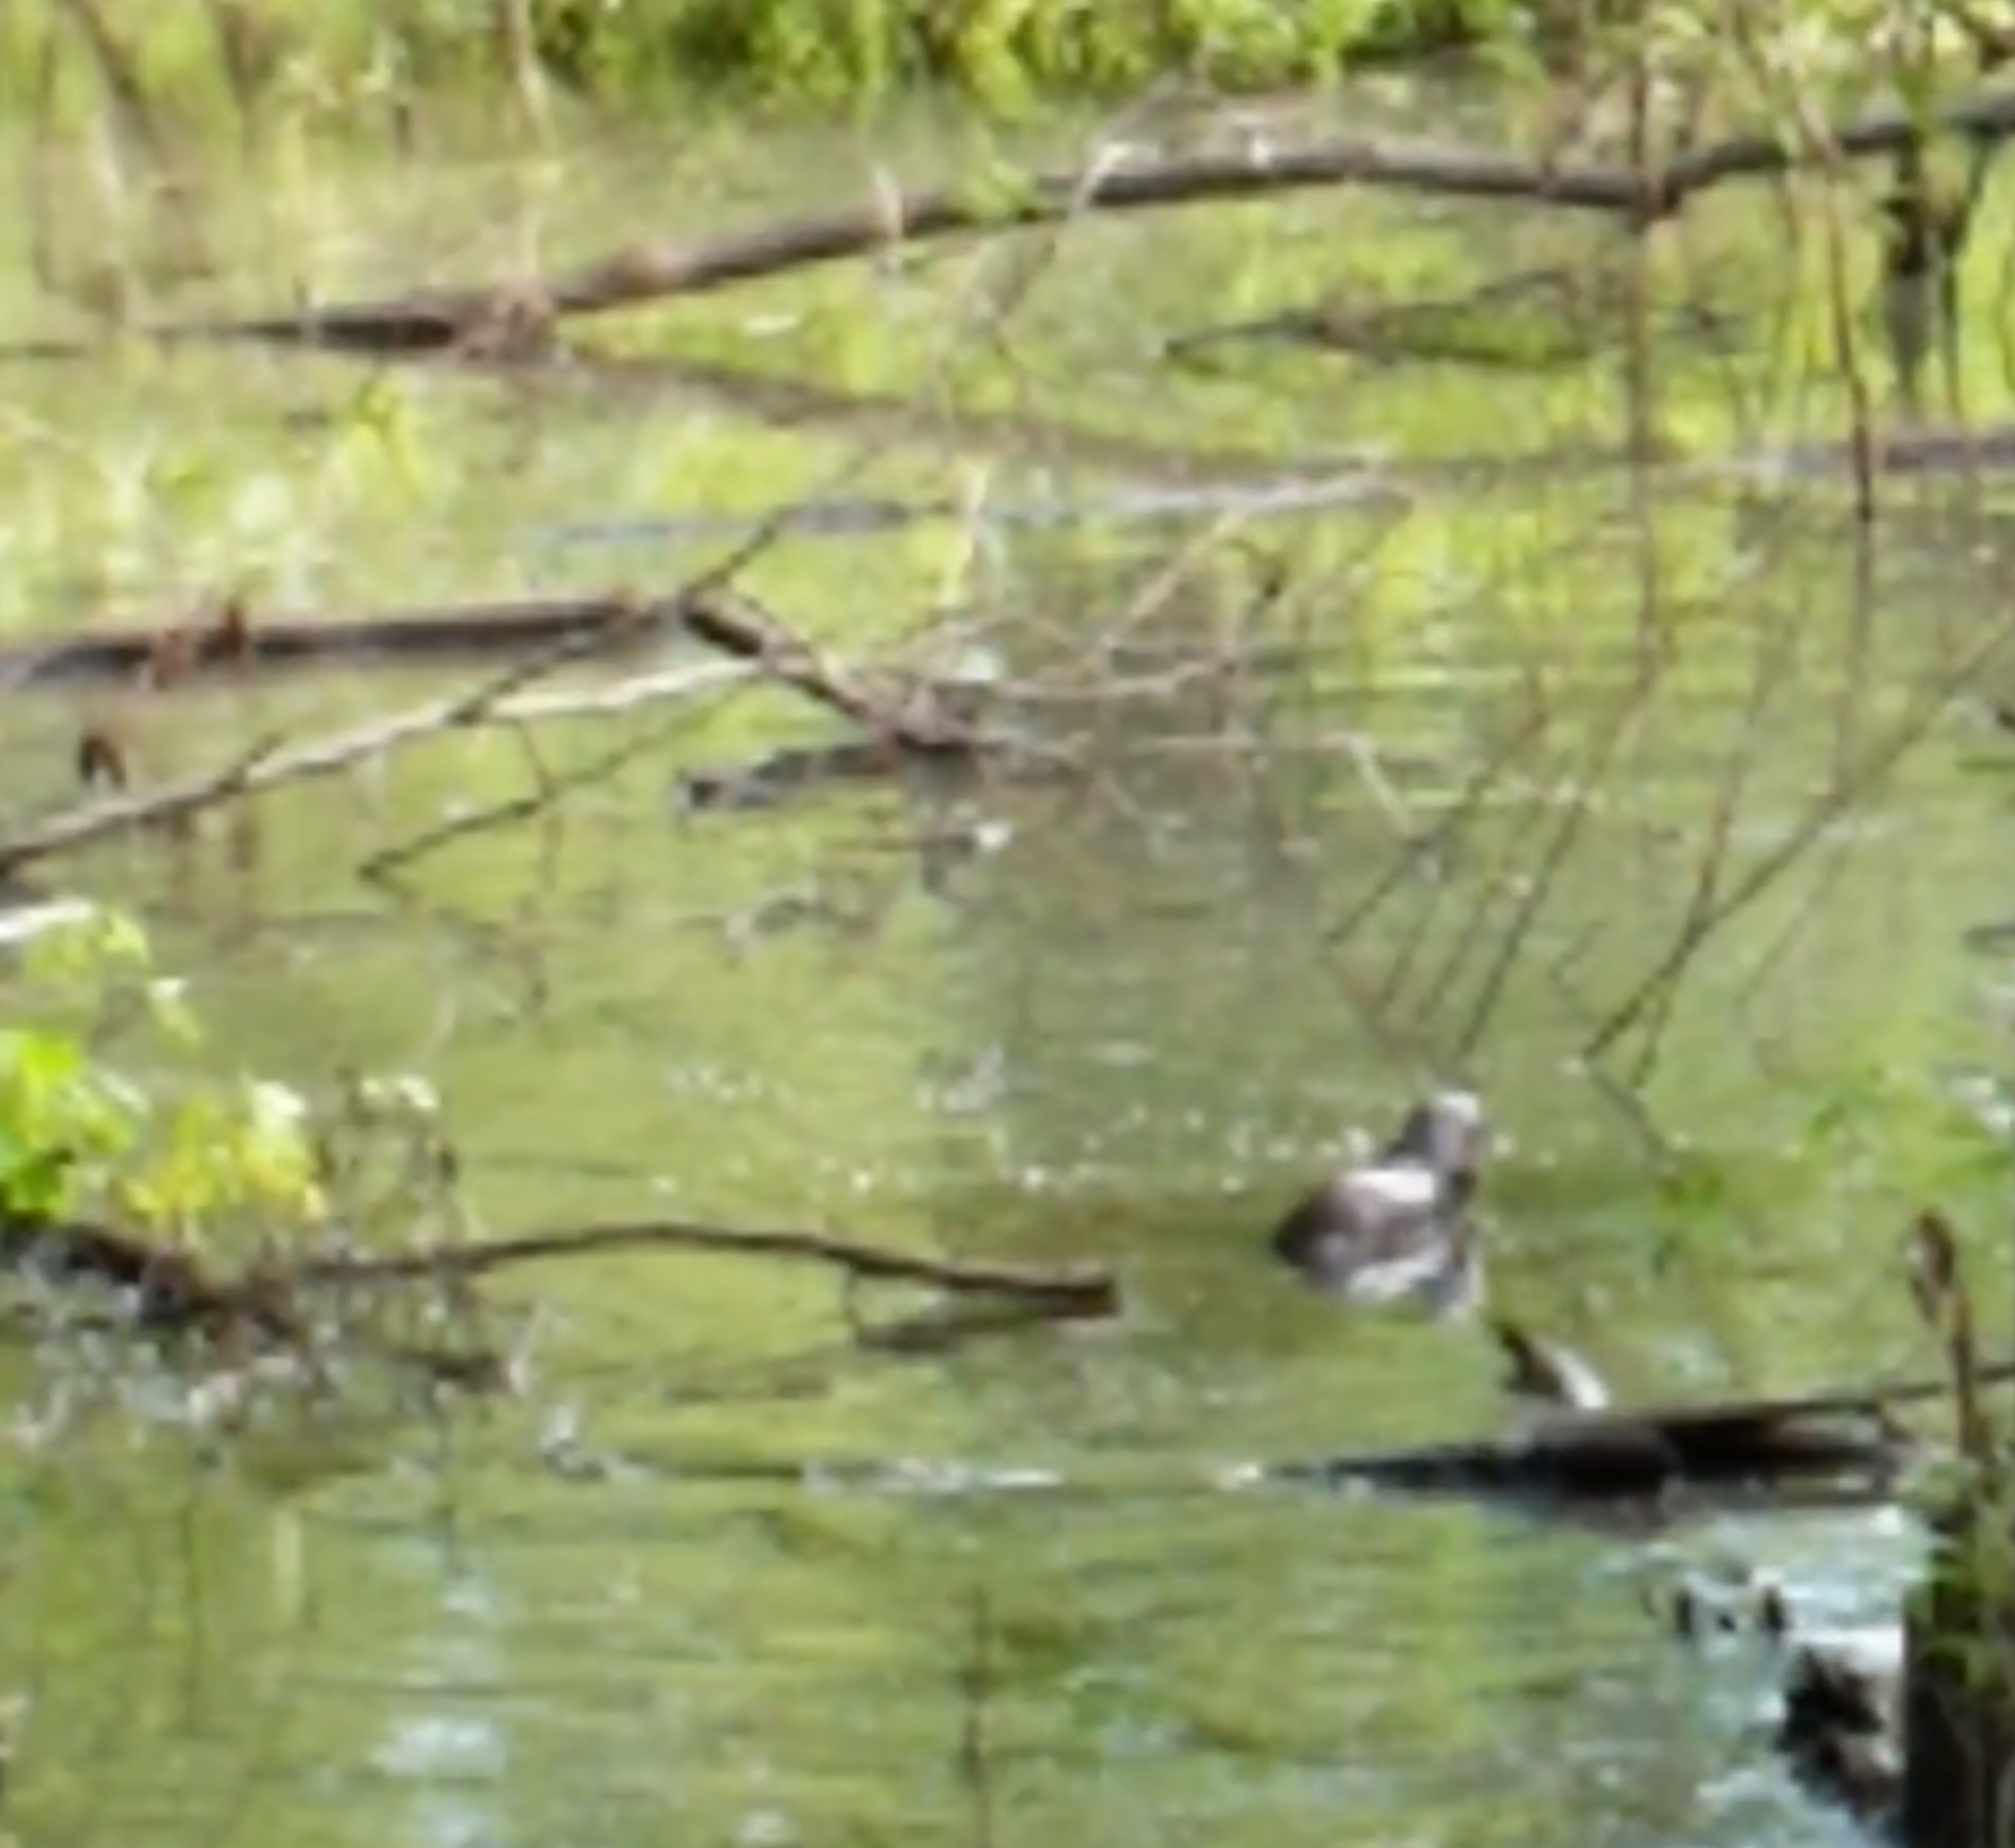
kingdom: Animalia
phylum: Chordata
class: Mammalia
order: Carnivora
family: Mustelidae
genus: Lontra
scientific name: Lontra canadensis
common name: North american river otter
